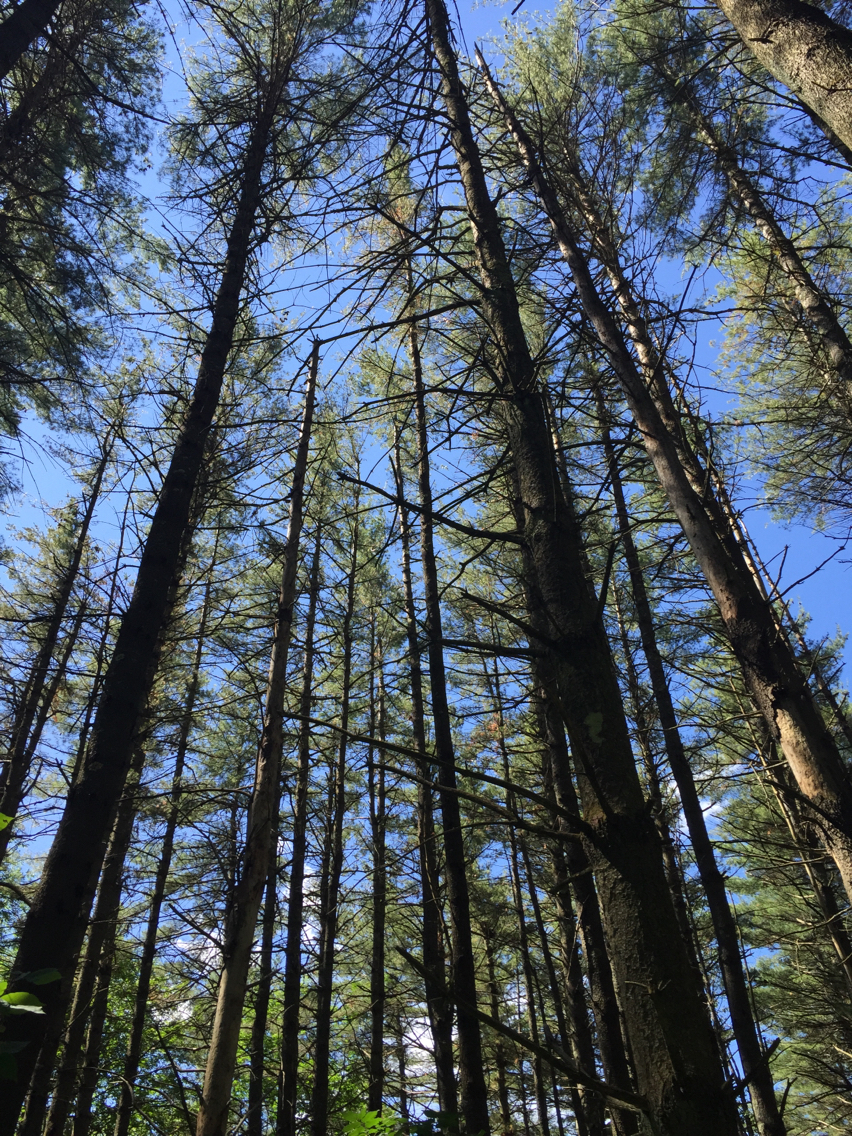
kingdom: Plantae
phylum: Tracheophyta
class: Pinopsida
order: Pinales
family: Pinaceae
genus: Pinus
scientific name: Pinus strobus
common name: Weymouth pine
